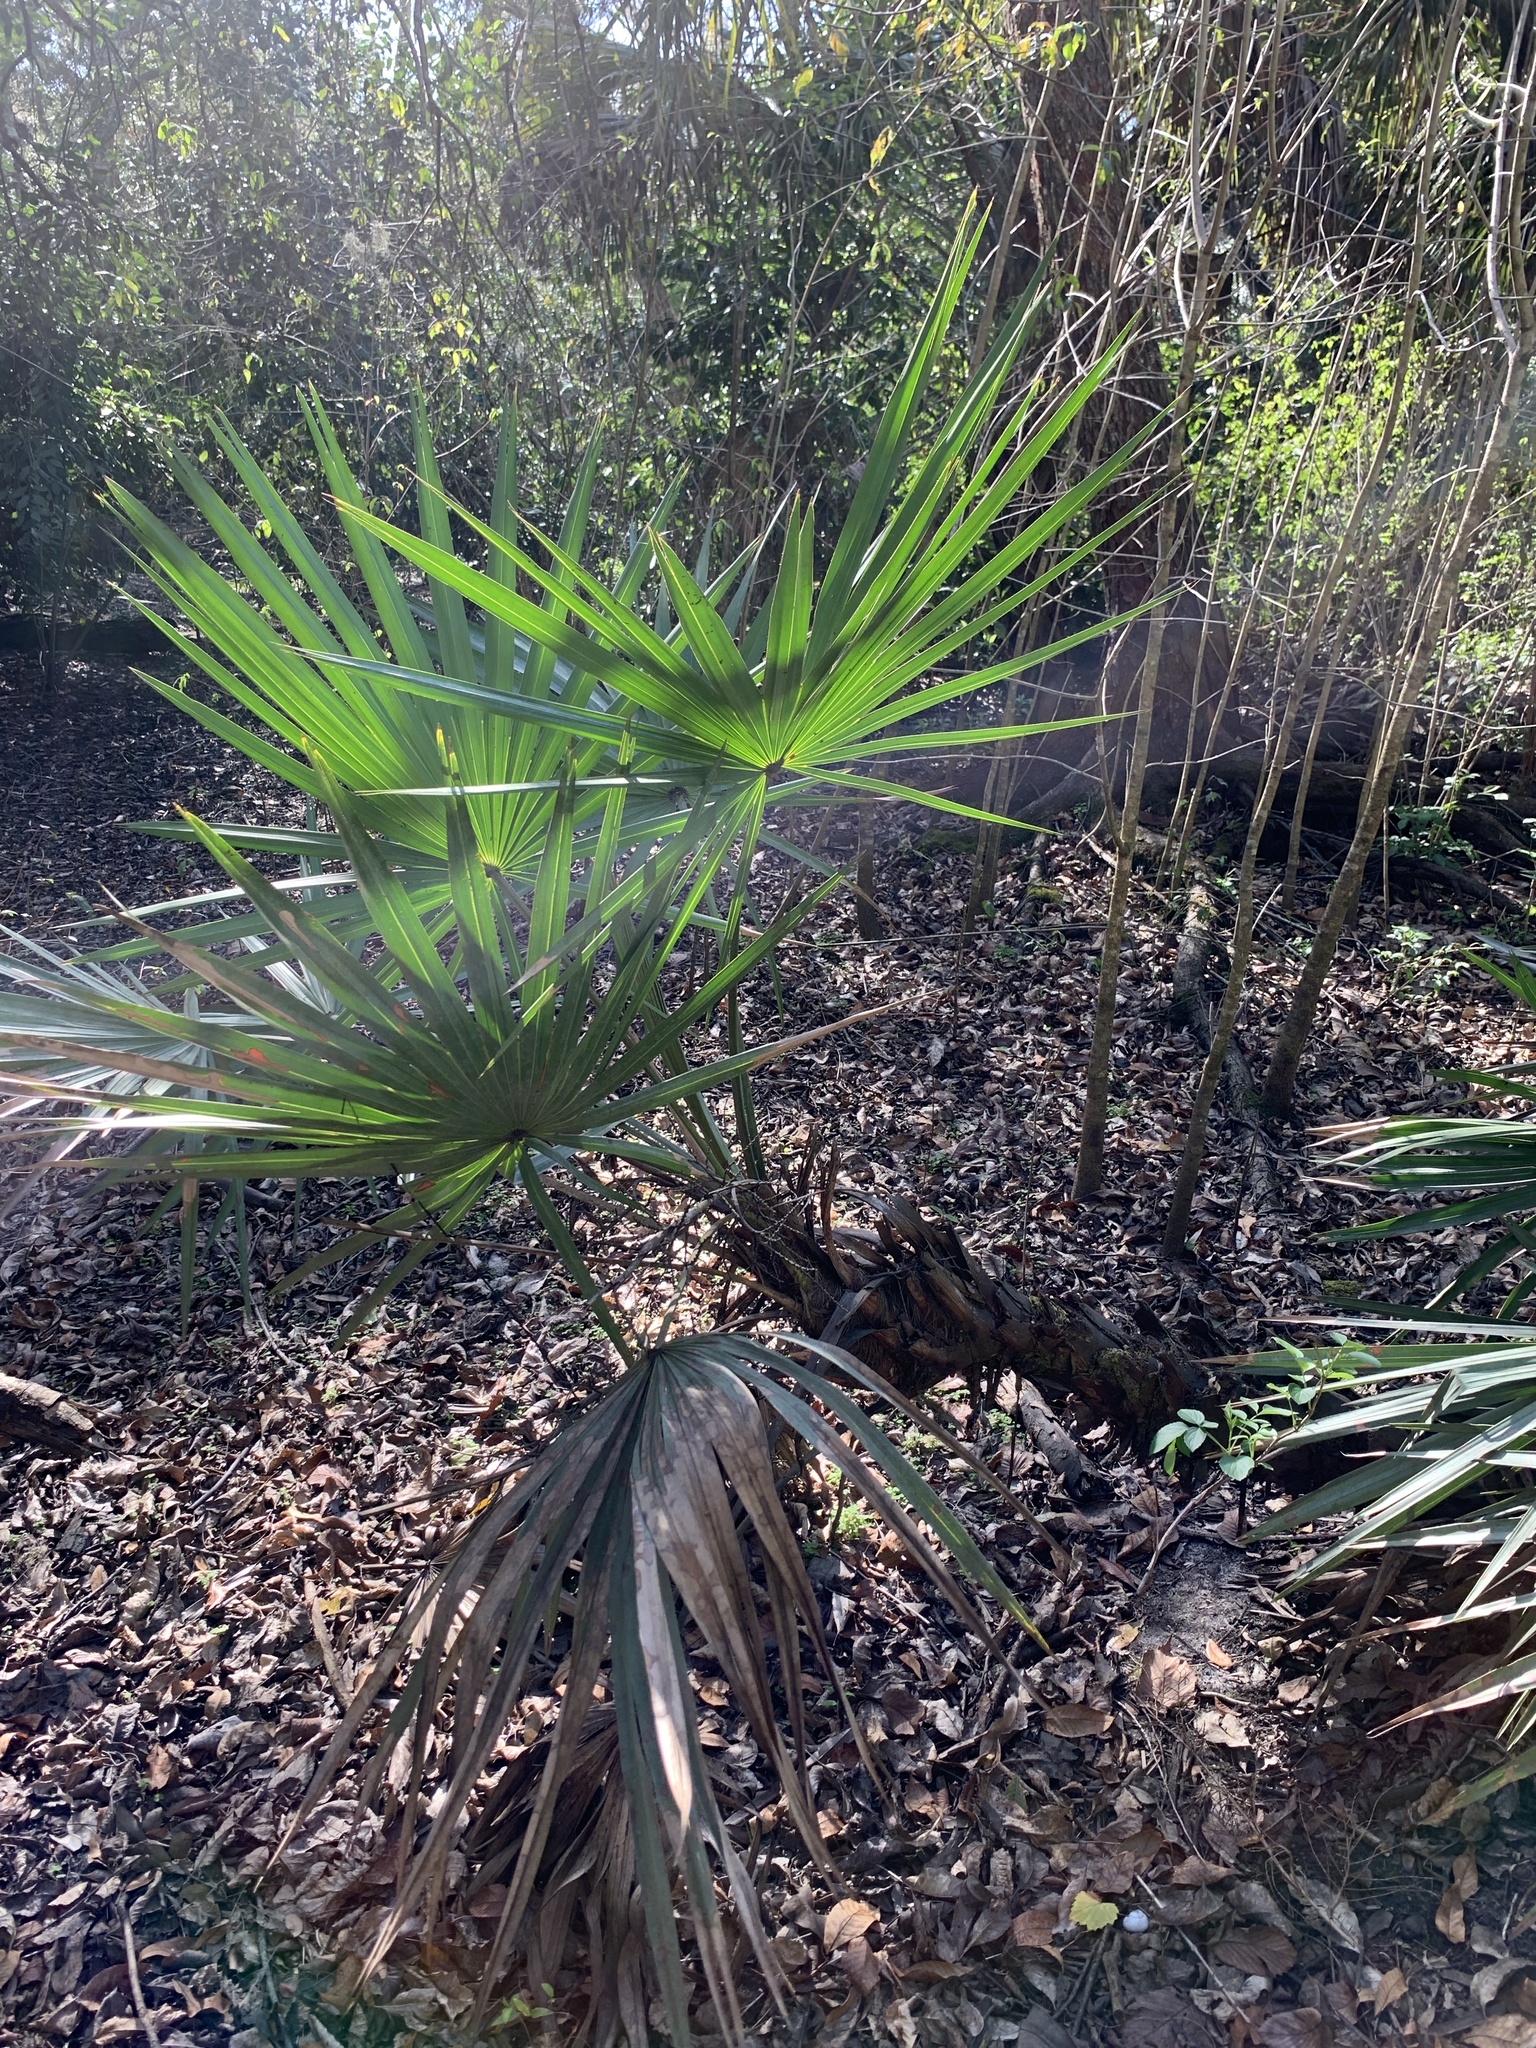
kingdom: Plantae
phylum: Tracheophyta
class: Liliopsida
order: Arecales
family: Arecaceae
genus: Serenoa
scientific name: Serenoa repens
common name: Saw-palmetto
